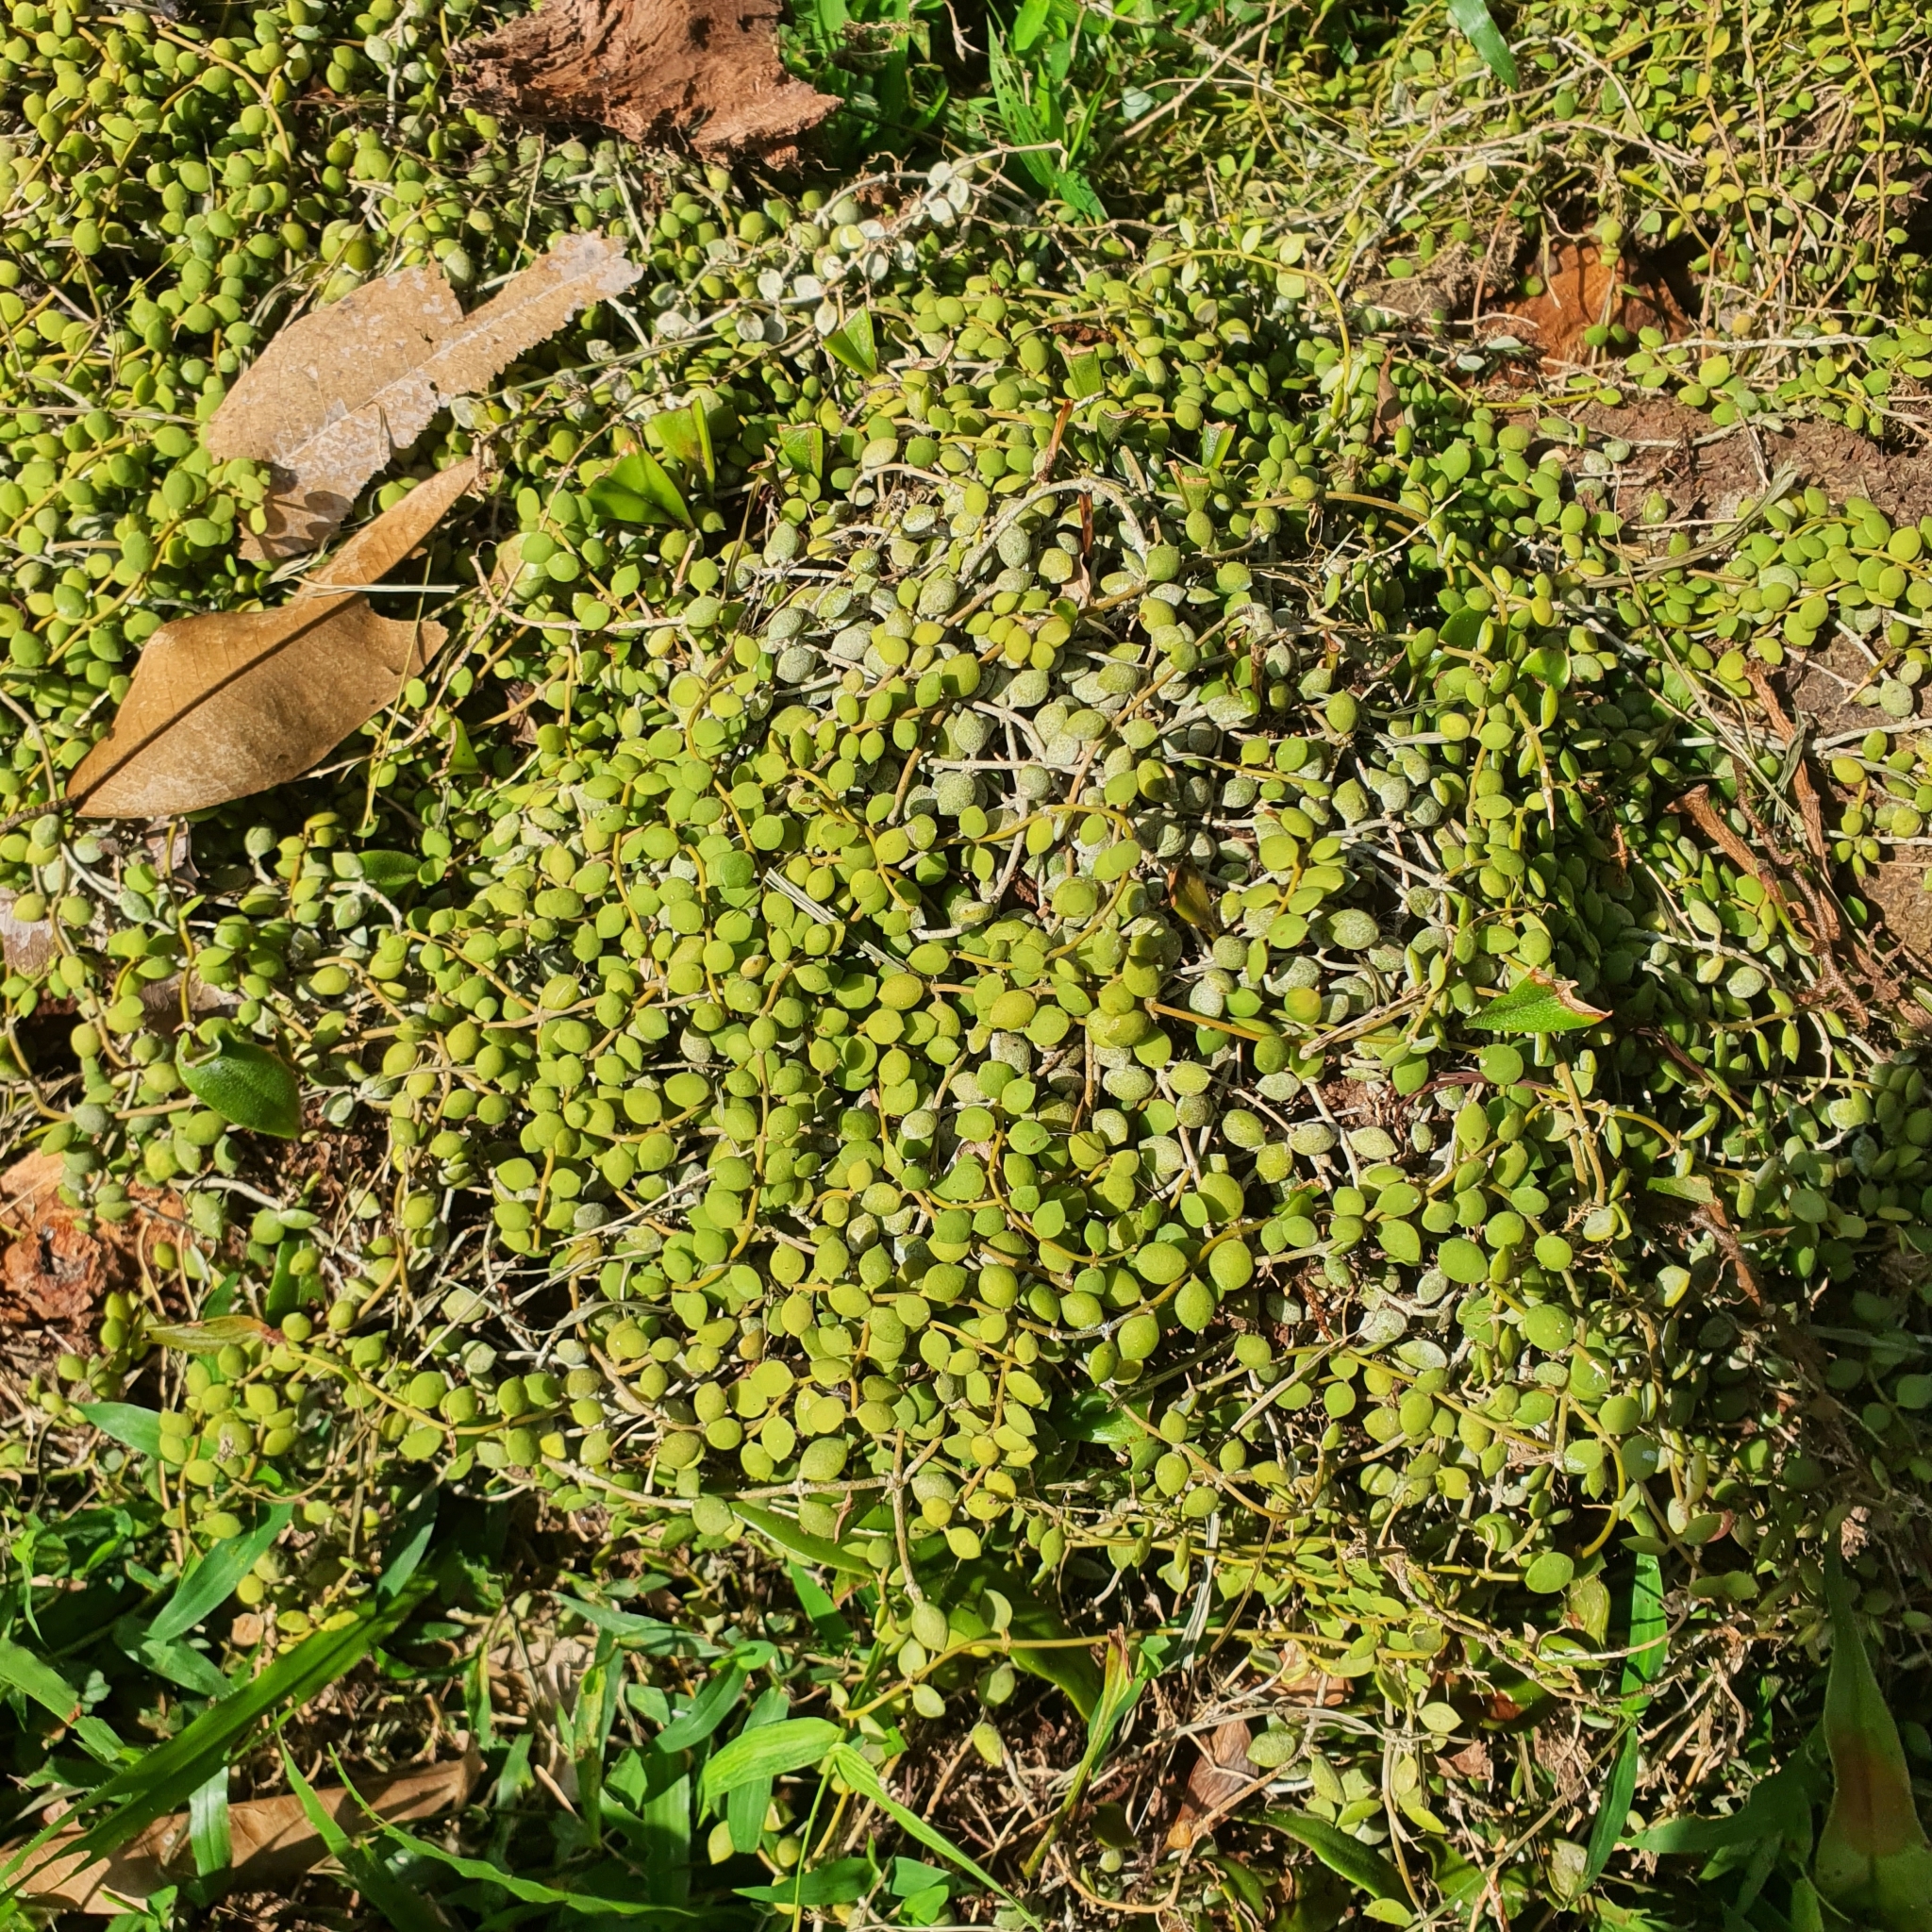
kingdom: Plantae
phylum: Tracheophyta
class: Magnoliopsida
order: Gentianales
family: Apocynaceae
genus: Dischidia
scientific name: Dischidia nummularia
